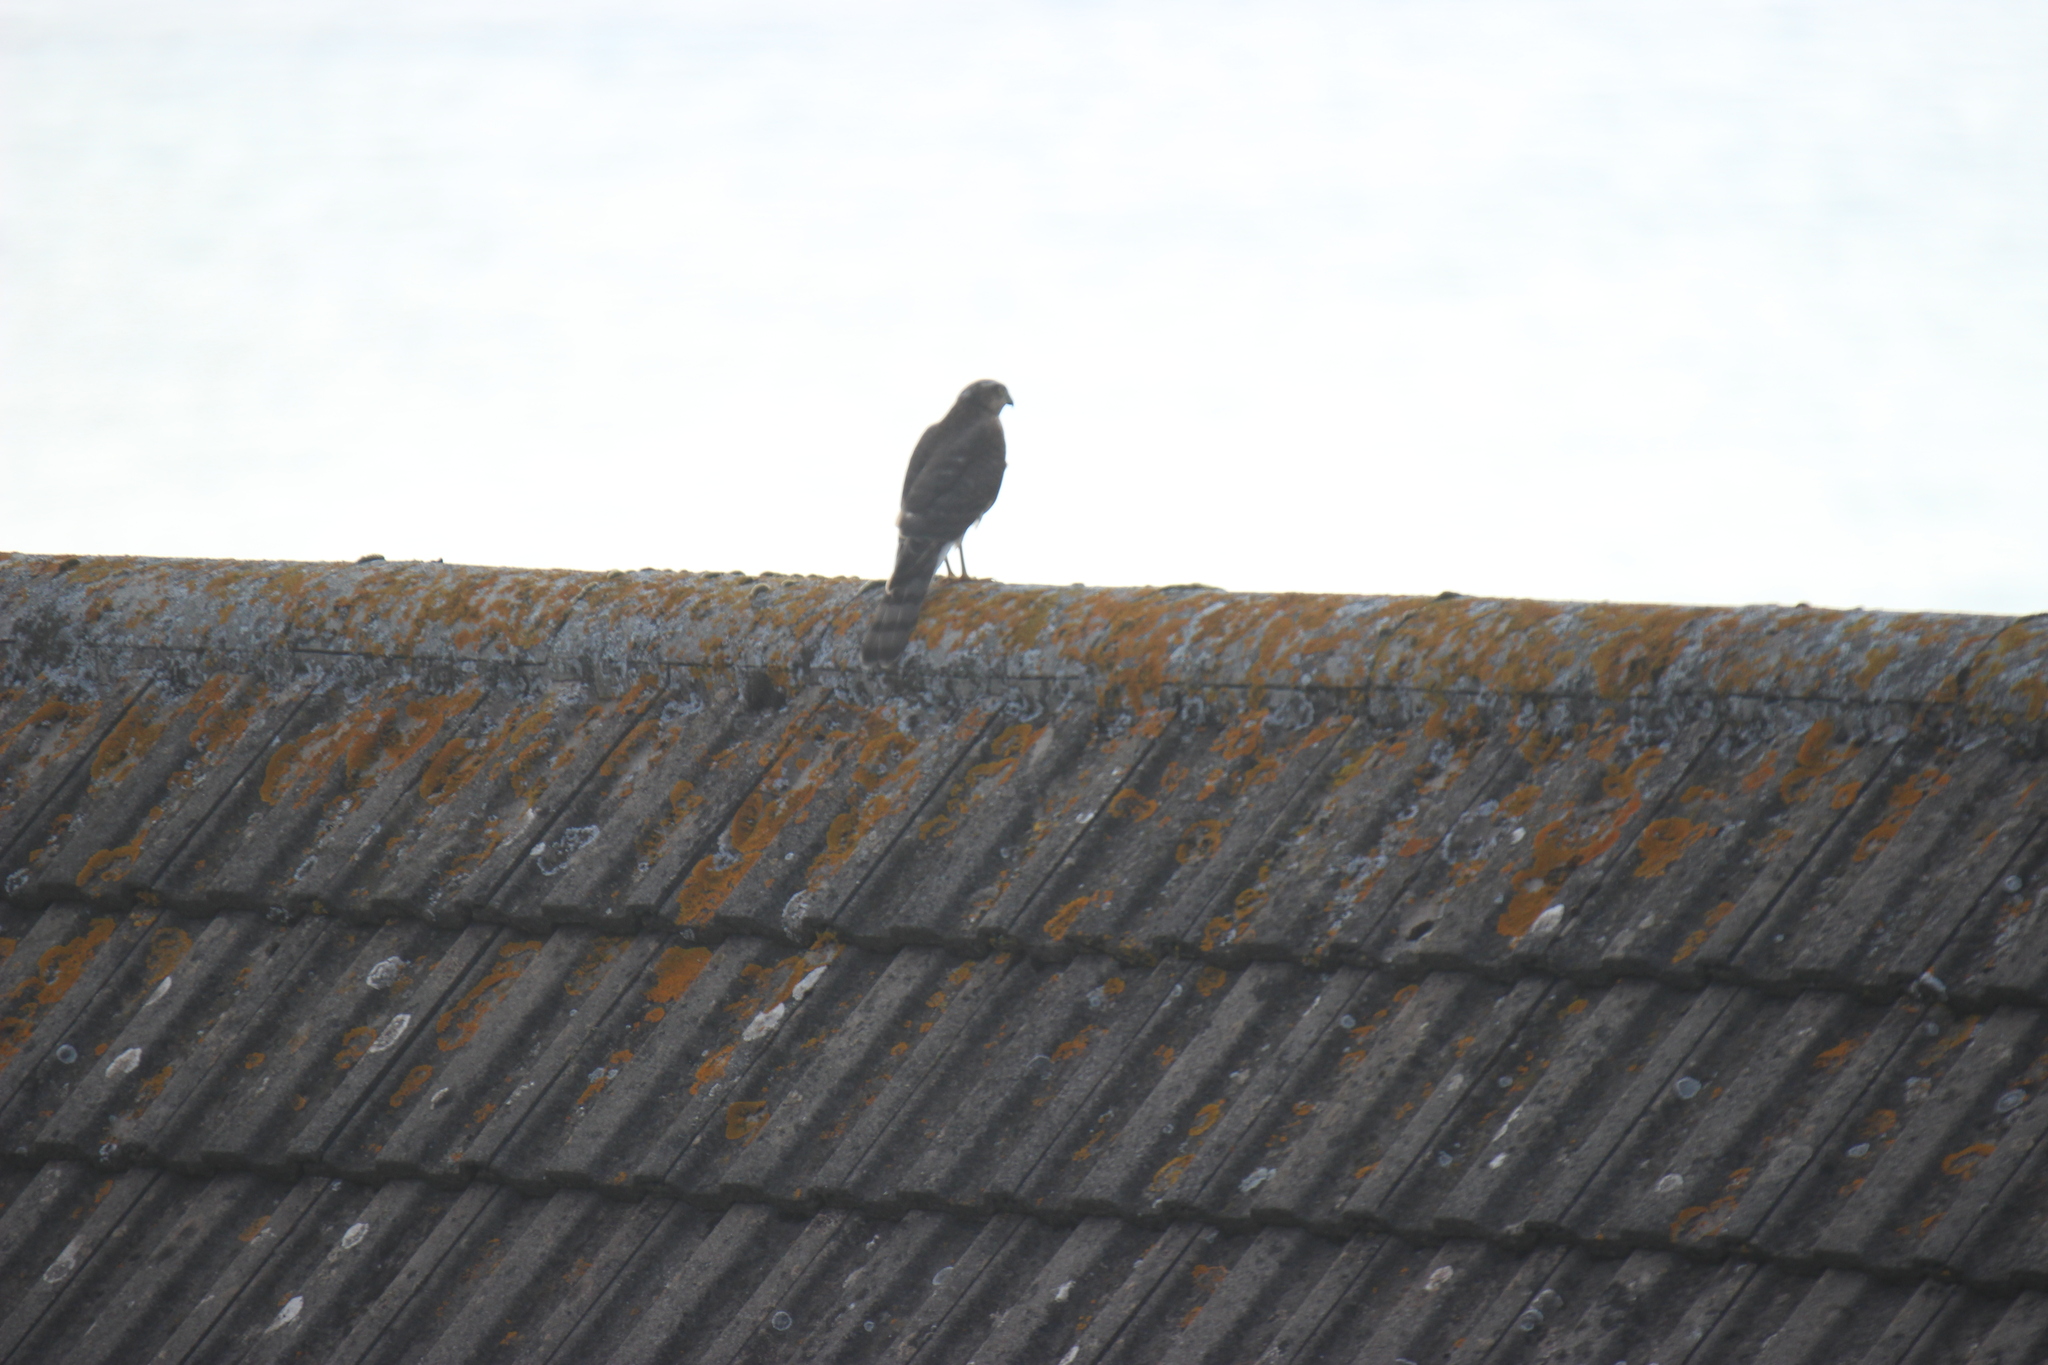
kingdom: Animalia
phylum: Chordata
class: Aves
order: Accipitriformes
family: Accipitridae
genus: Accipiter
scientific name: Accipiter nisus
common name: Eurasian sparrowhawk
